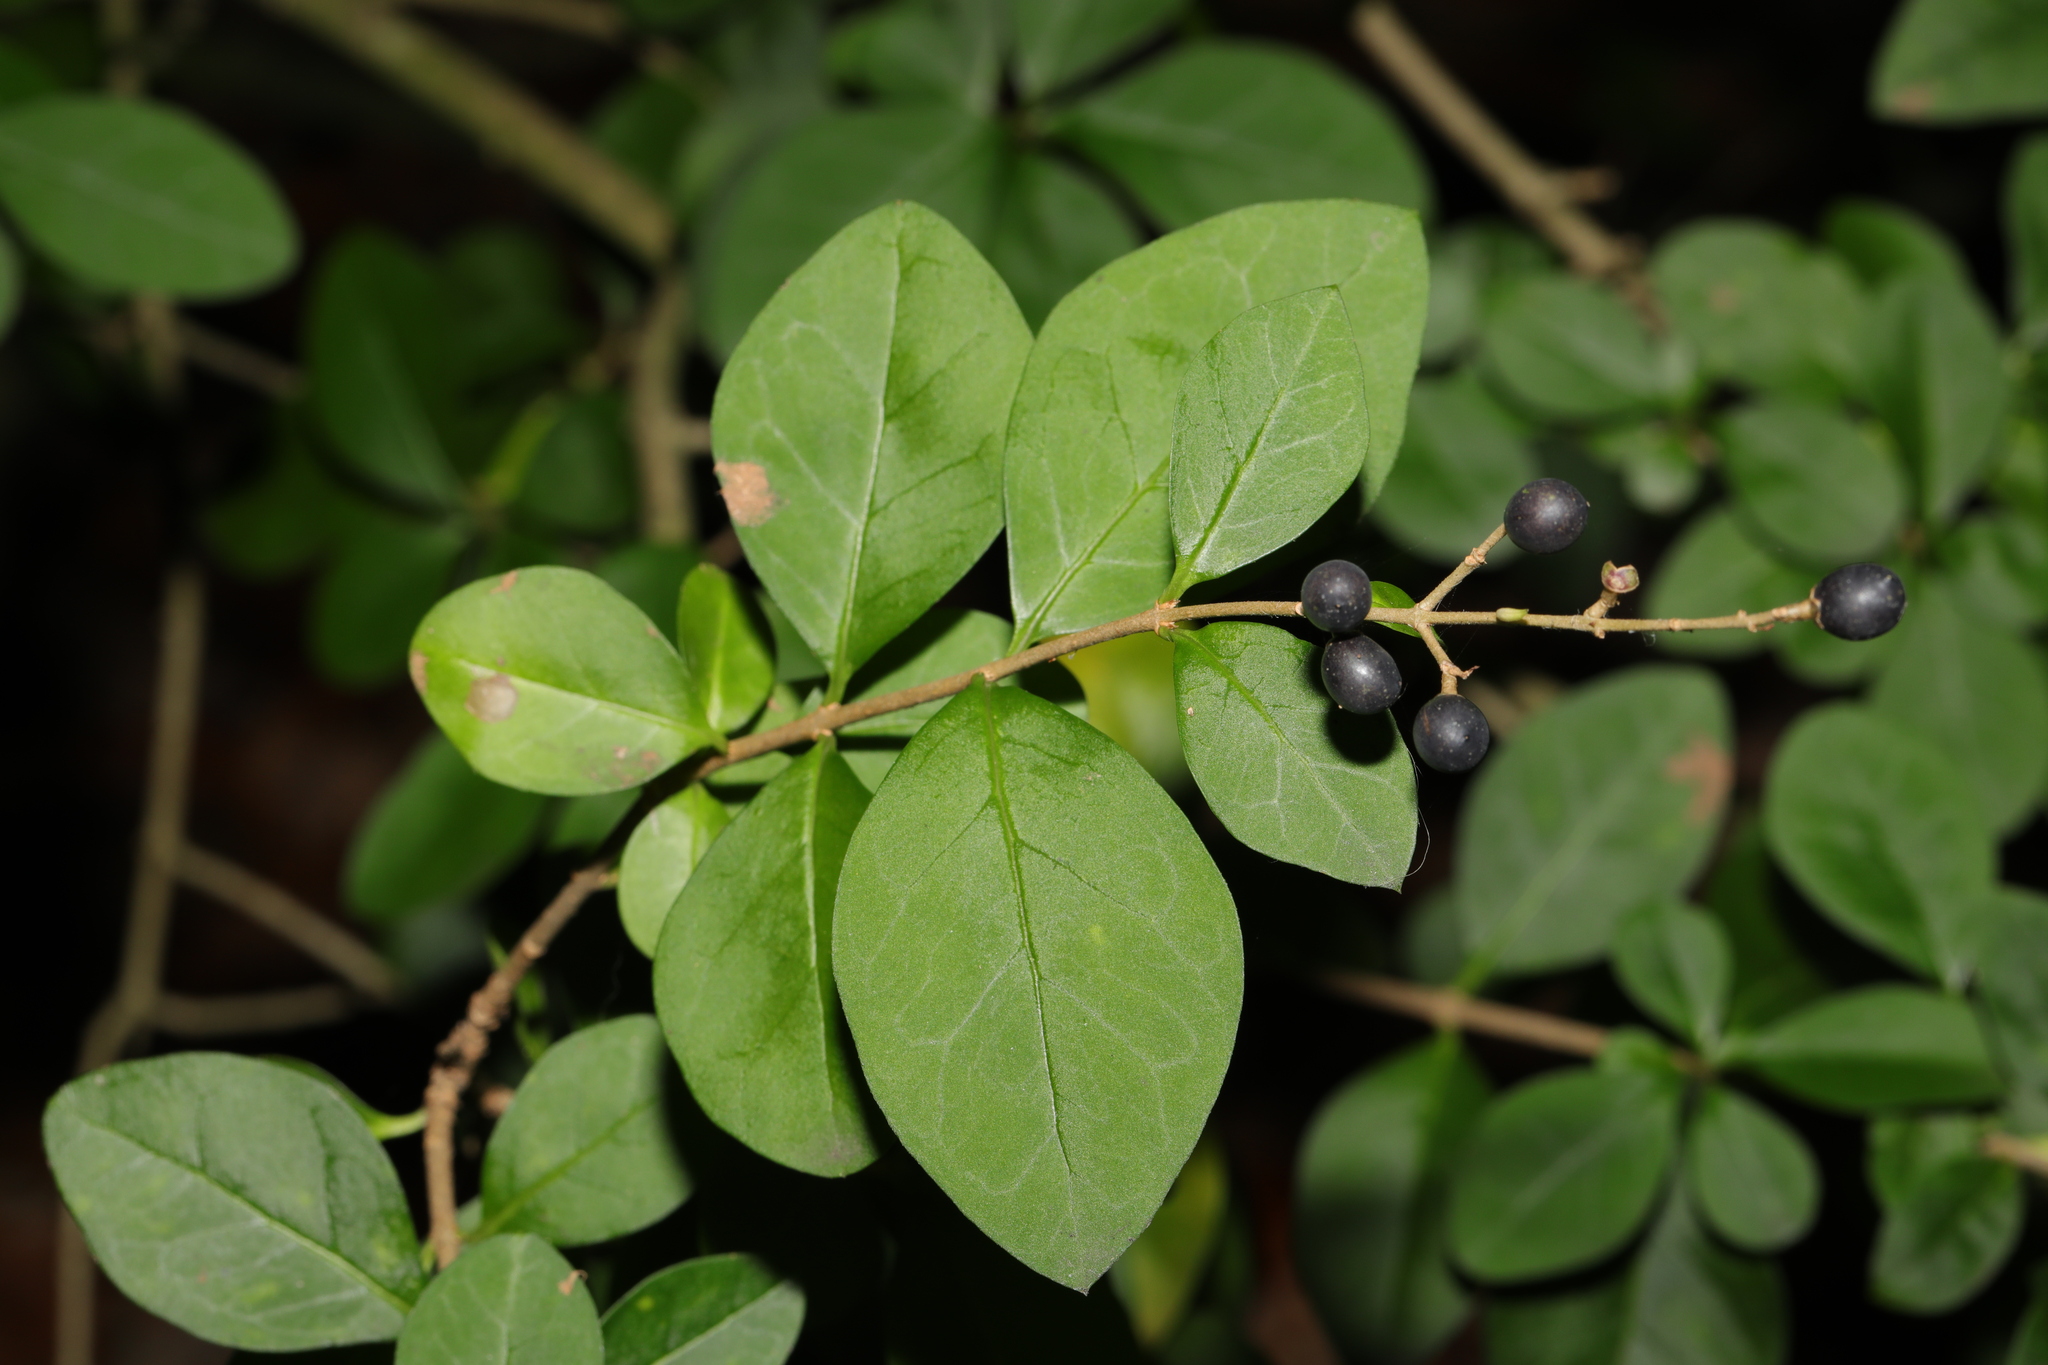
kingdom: Plantae
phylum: Tracheophyta
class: Magnoliopsida
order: Lamiales
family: Oleaceae
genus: Ligustrum
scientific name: Ligustrum ovalifolium
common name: California privet
